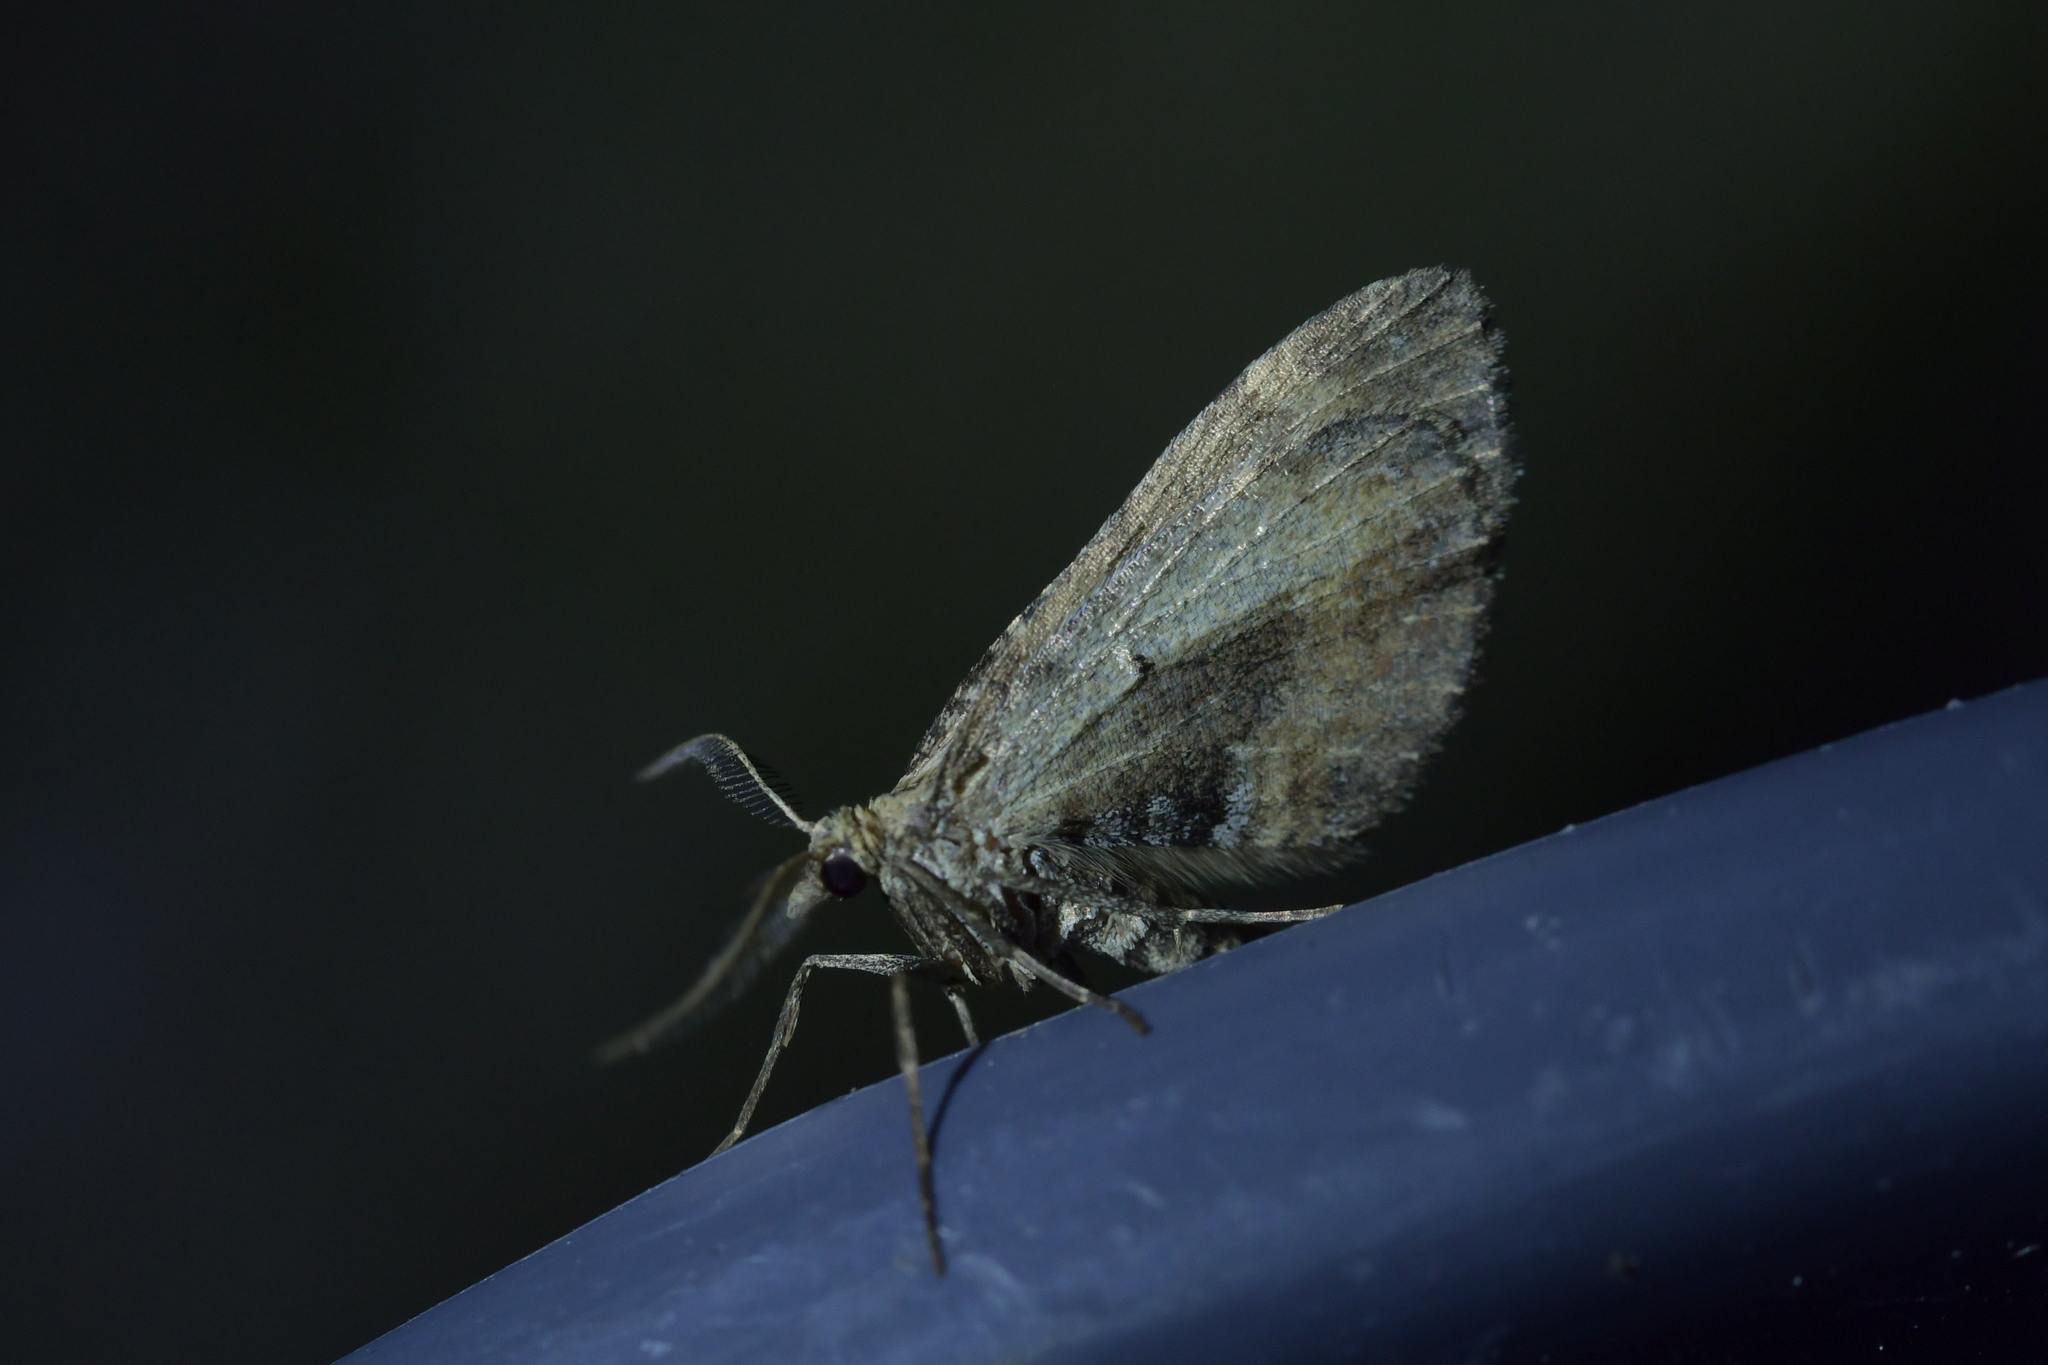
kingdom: Animalia
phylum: Arthropoda
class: Insecta
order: Lepidoptera
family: Geometridae
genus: Asaphodes
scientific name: Asaphodes aegrota
